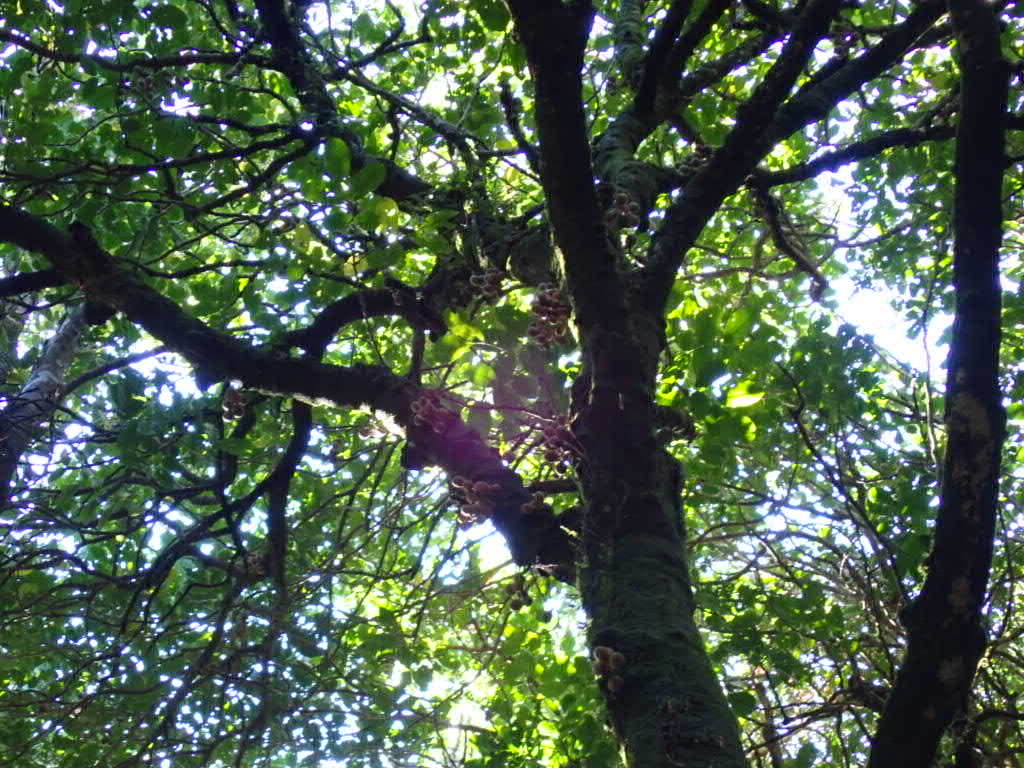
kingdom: Plantae
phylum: Tracheophyta
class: Magnoliopsida
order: Sapindales
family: Meliaceae
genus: Didymocheton
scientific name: Didymocheton spectabilis
